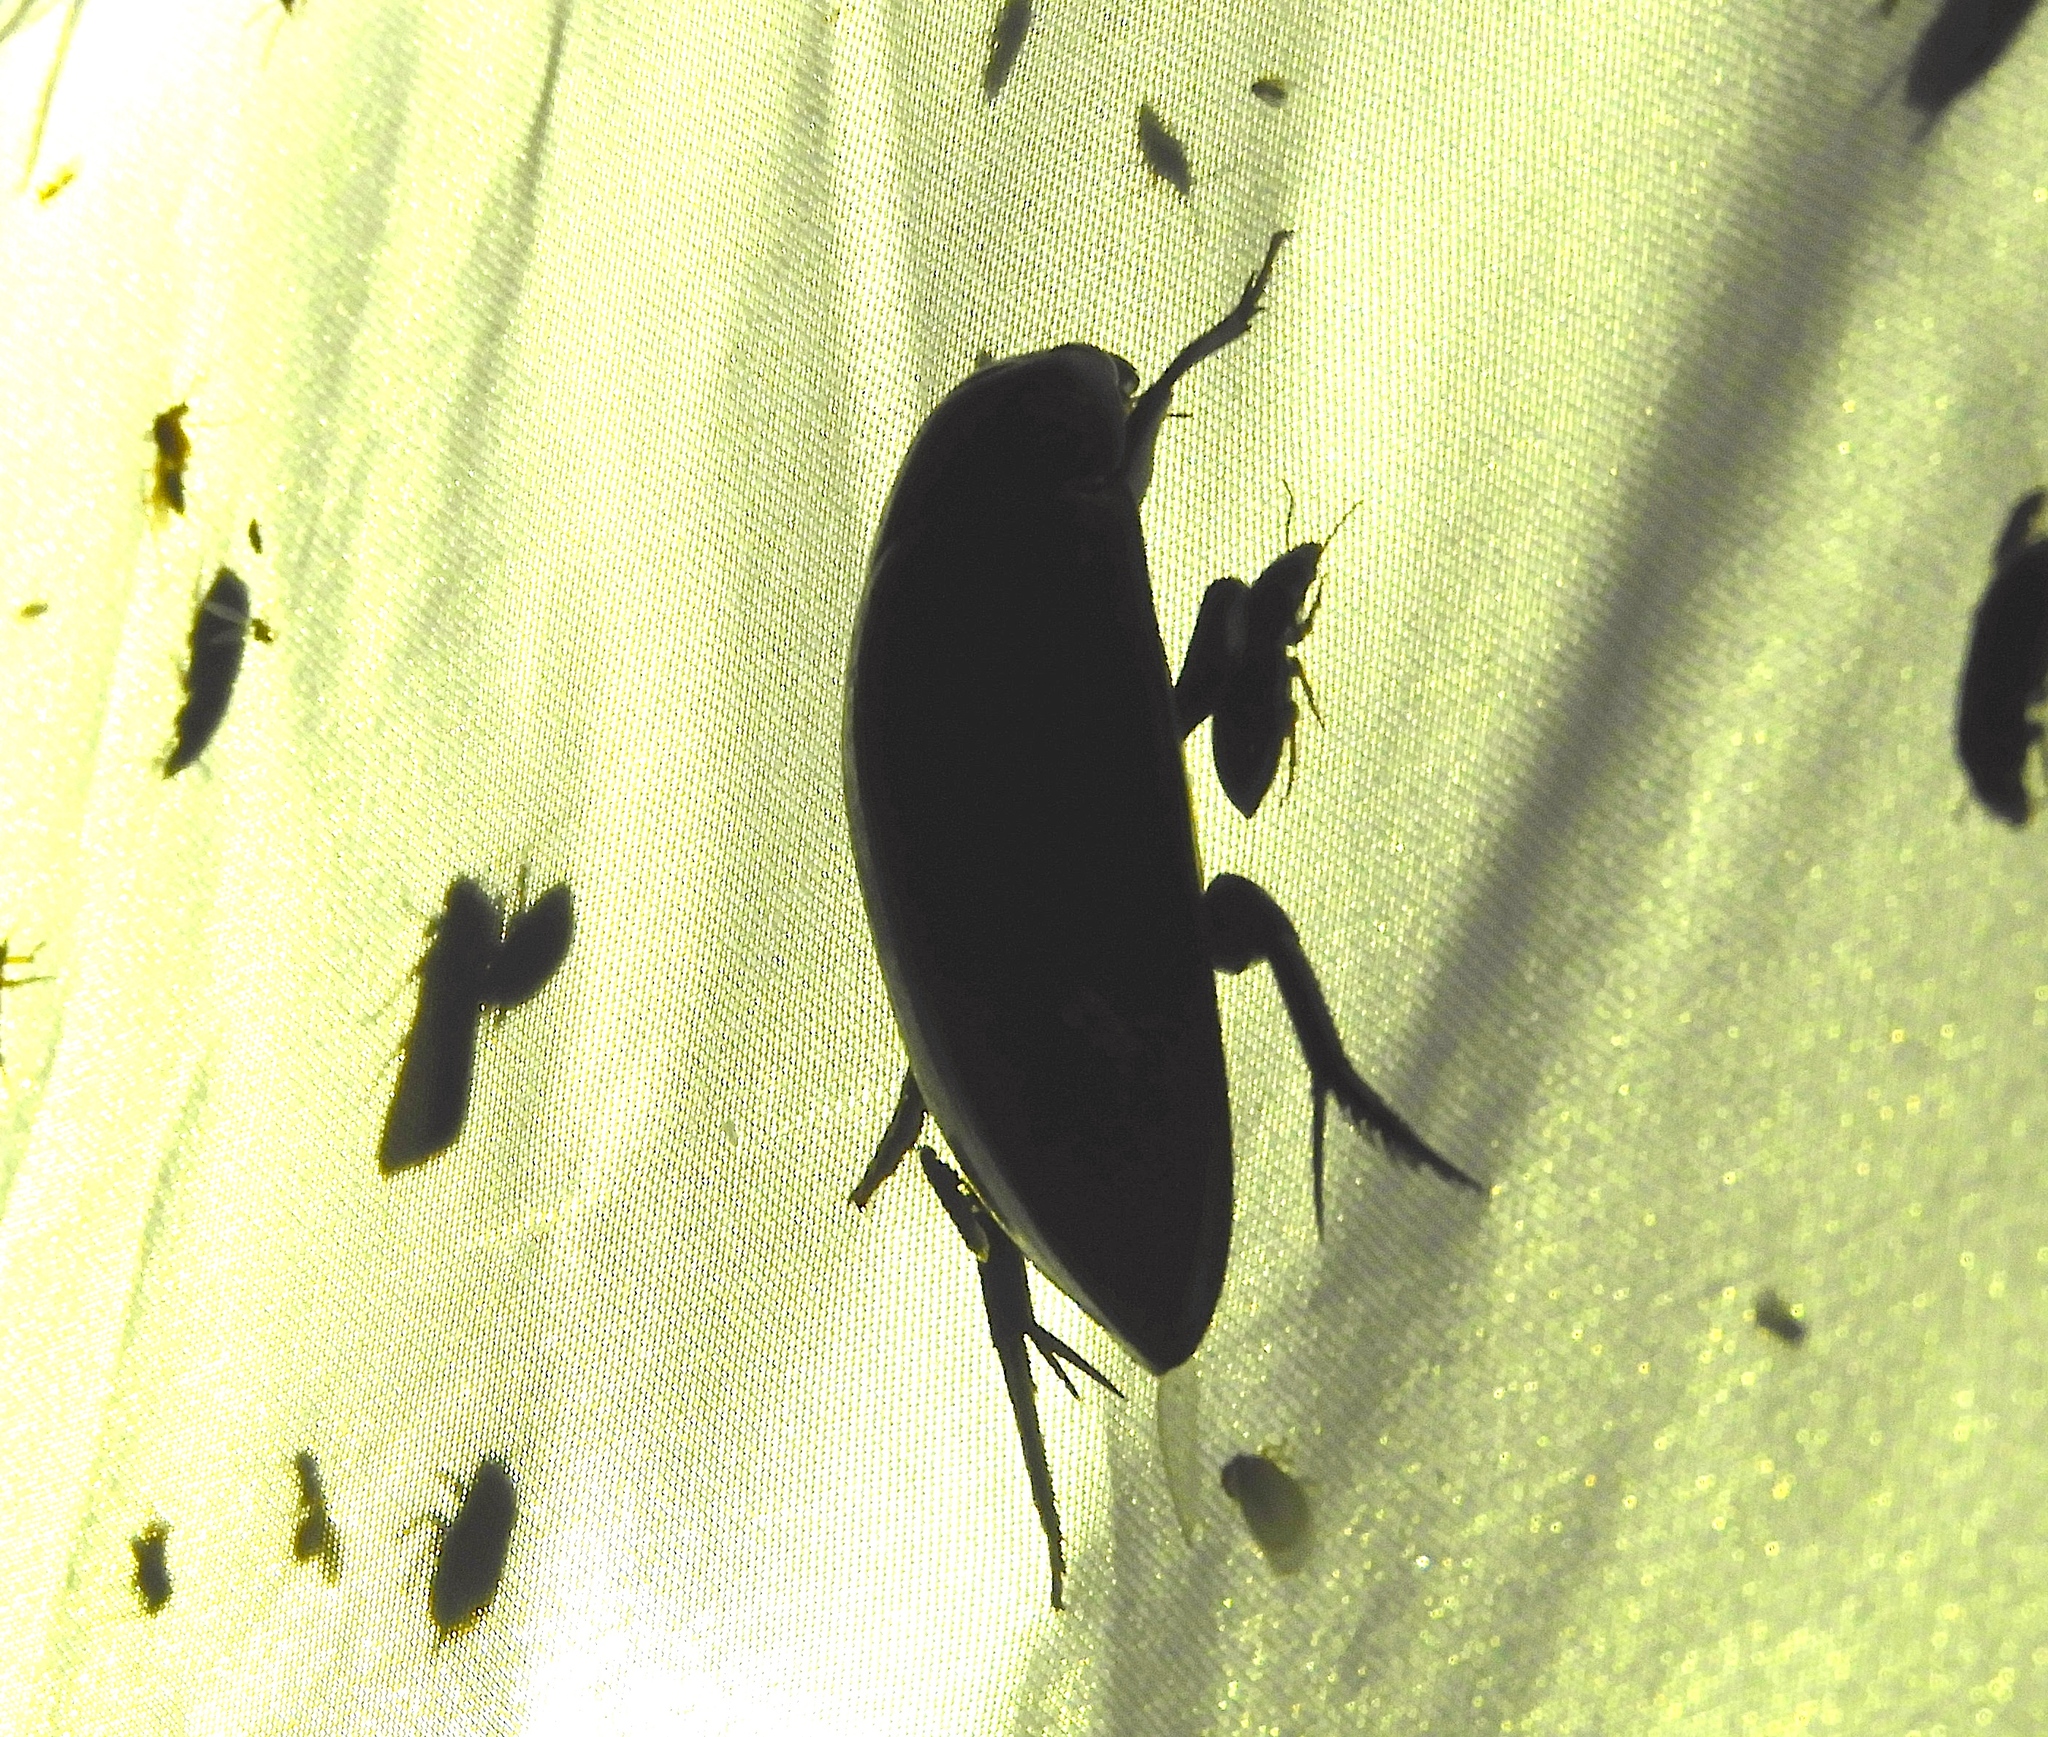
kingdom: Animalia
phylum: Arthropoda
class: Insecta
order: Coleoptera
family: Hydrophilidae
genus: Hydrophilus
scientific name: Hydrophilus
